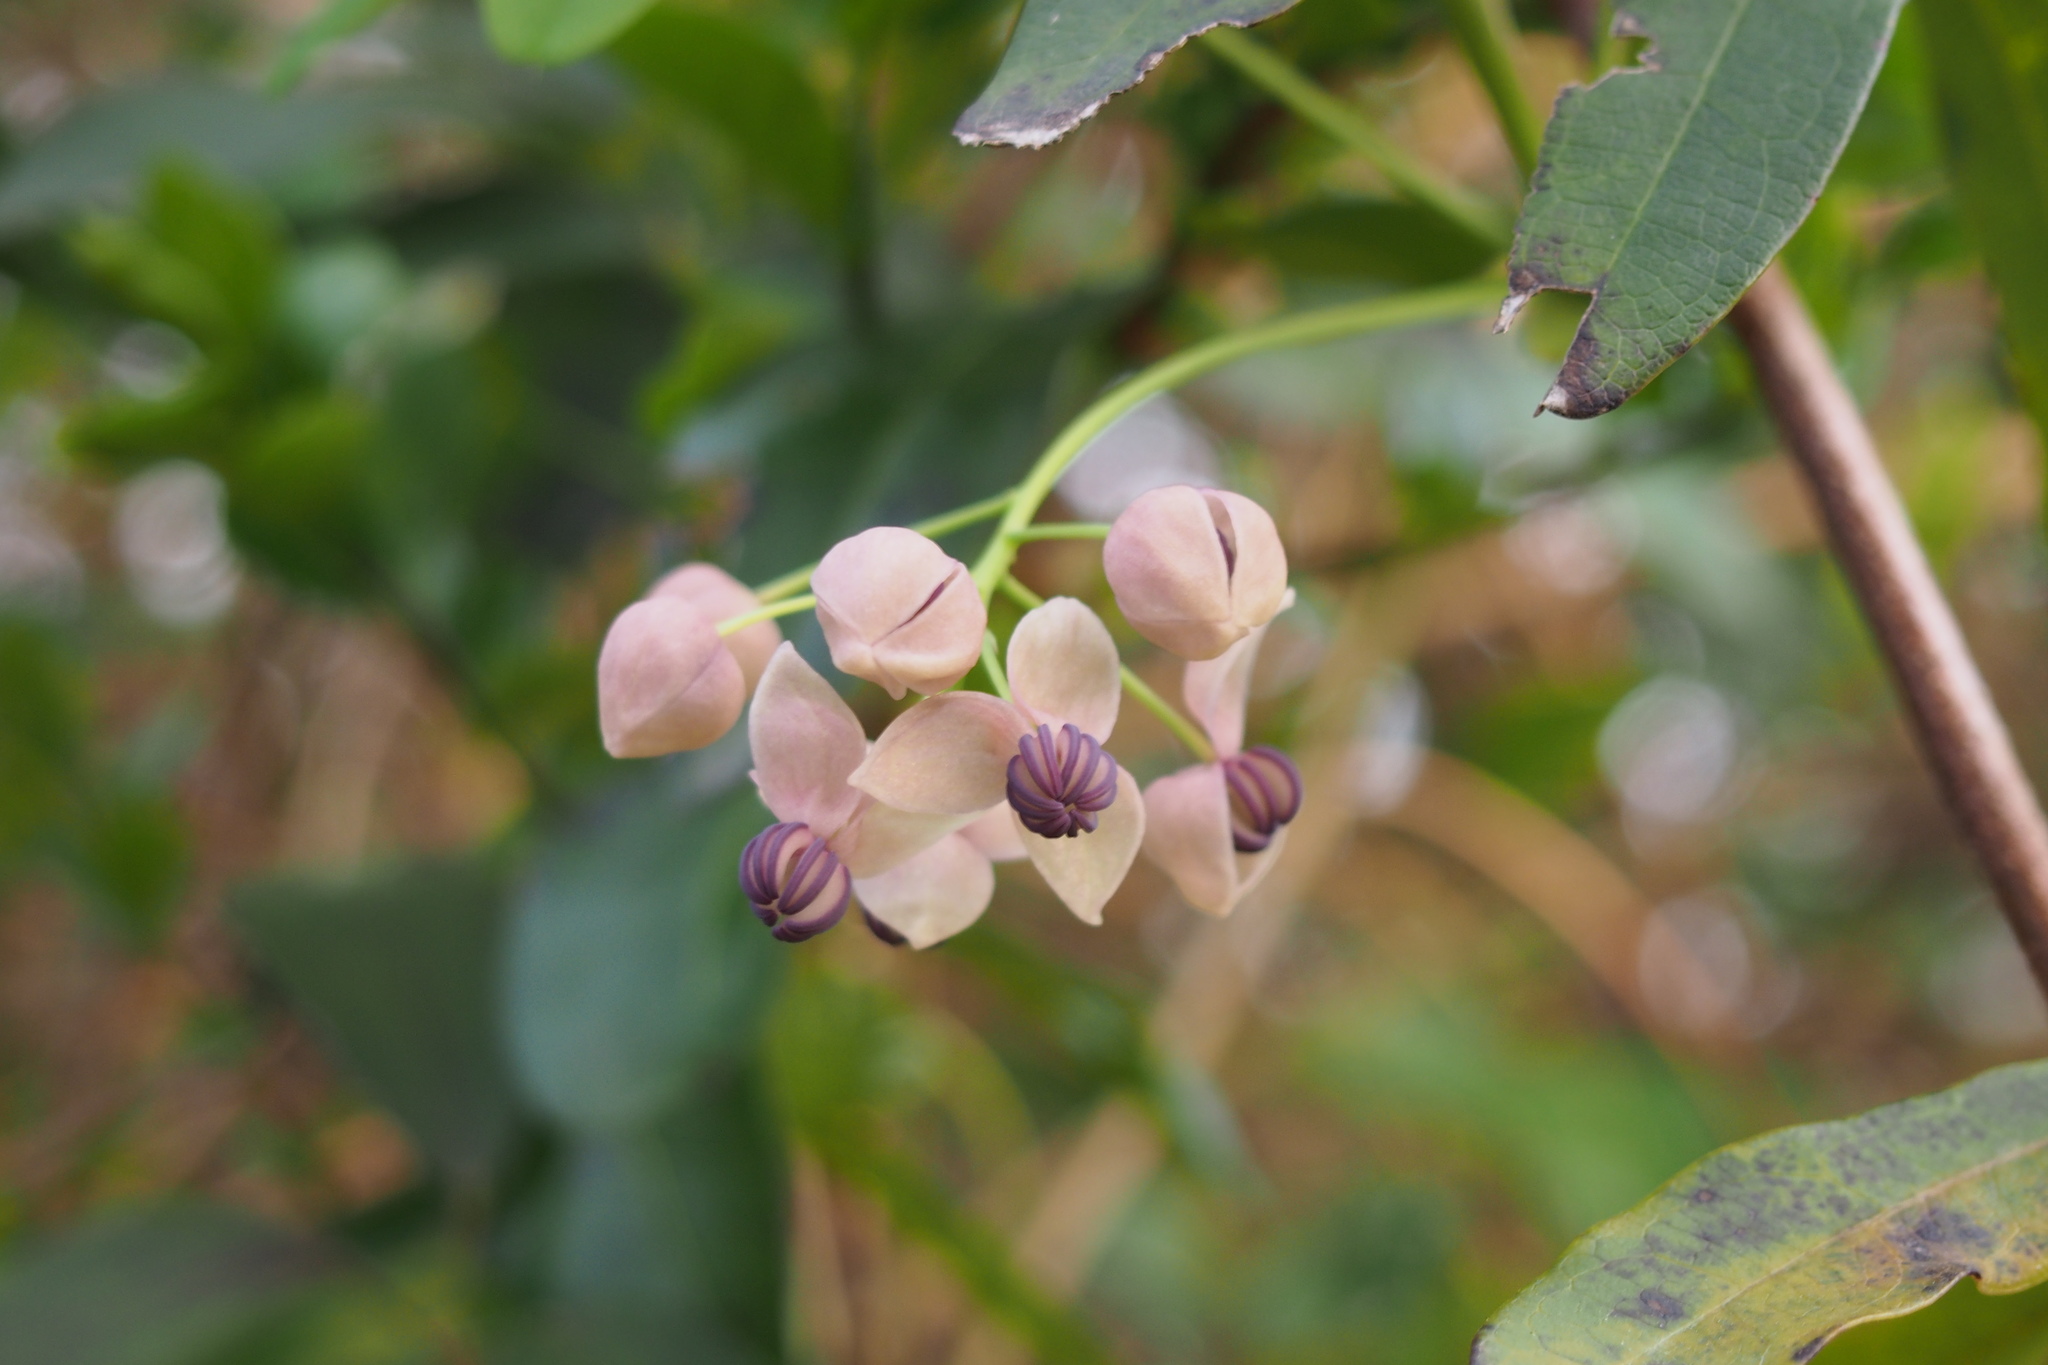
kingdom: Plantae
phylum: Tracheophyta
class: Magnoliopsida
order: Ranunculales
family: Lardizabalaceae
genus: Akebia
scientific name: Akebia quinata
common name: Five-leaf akebia
